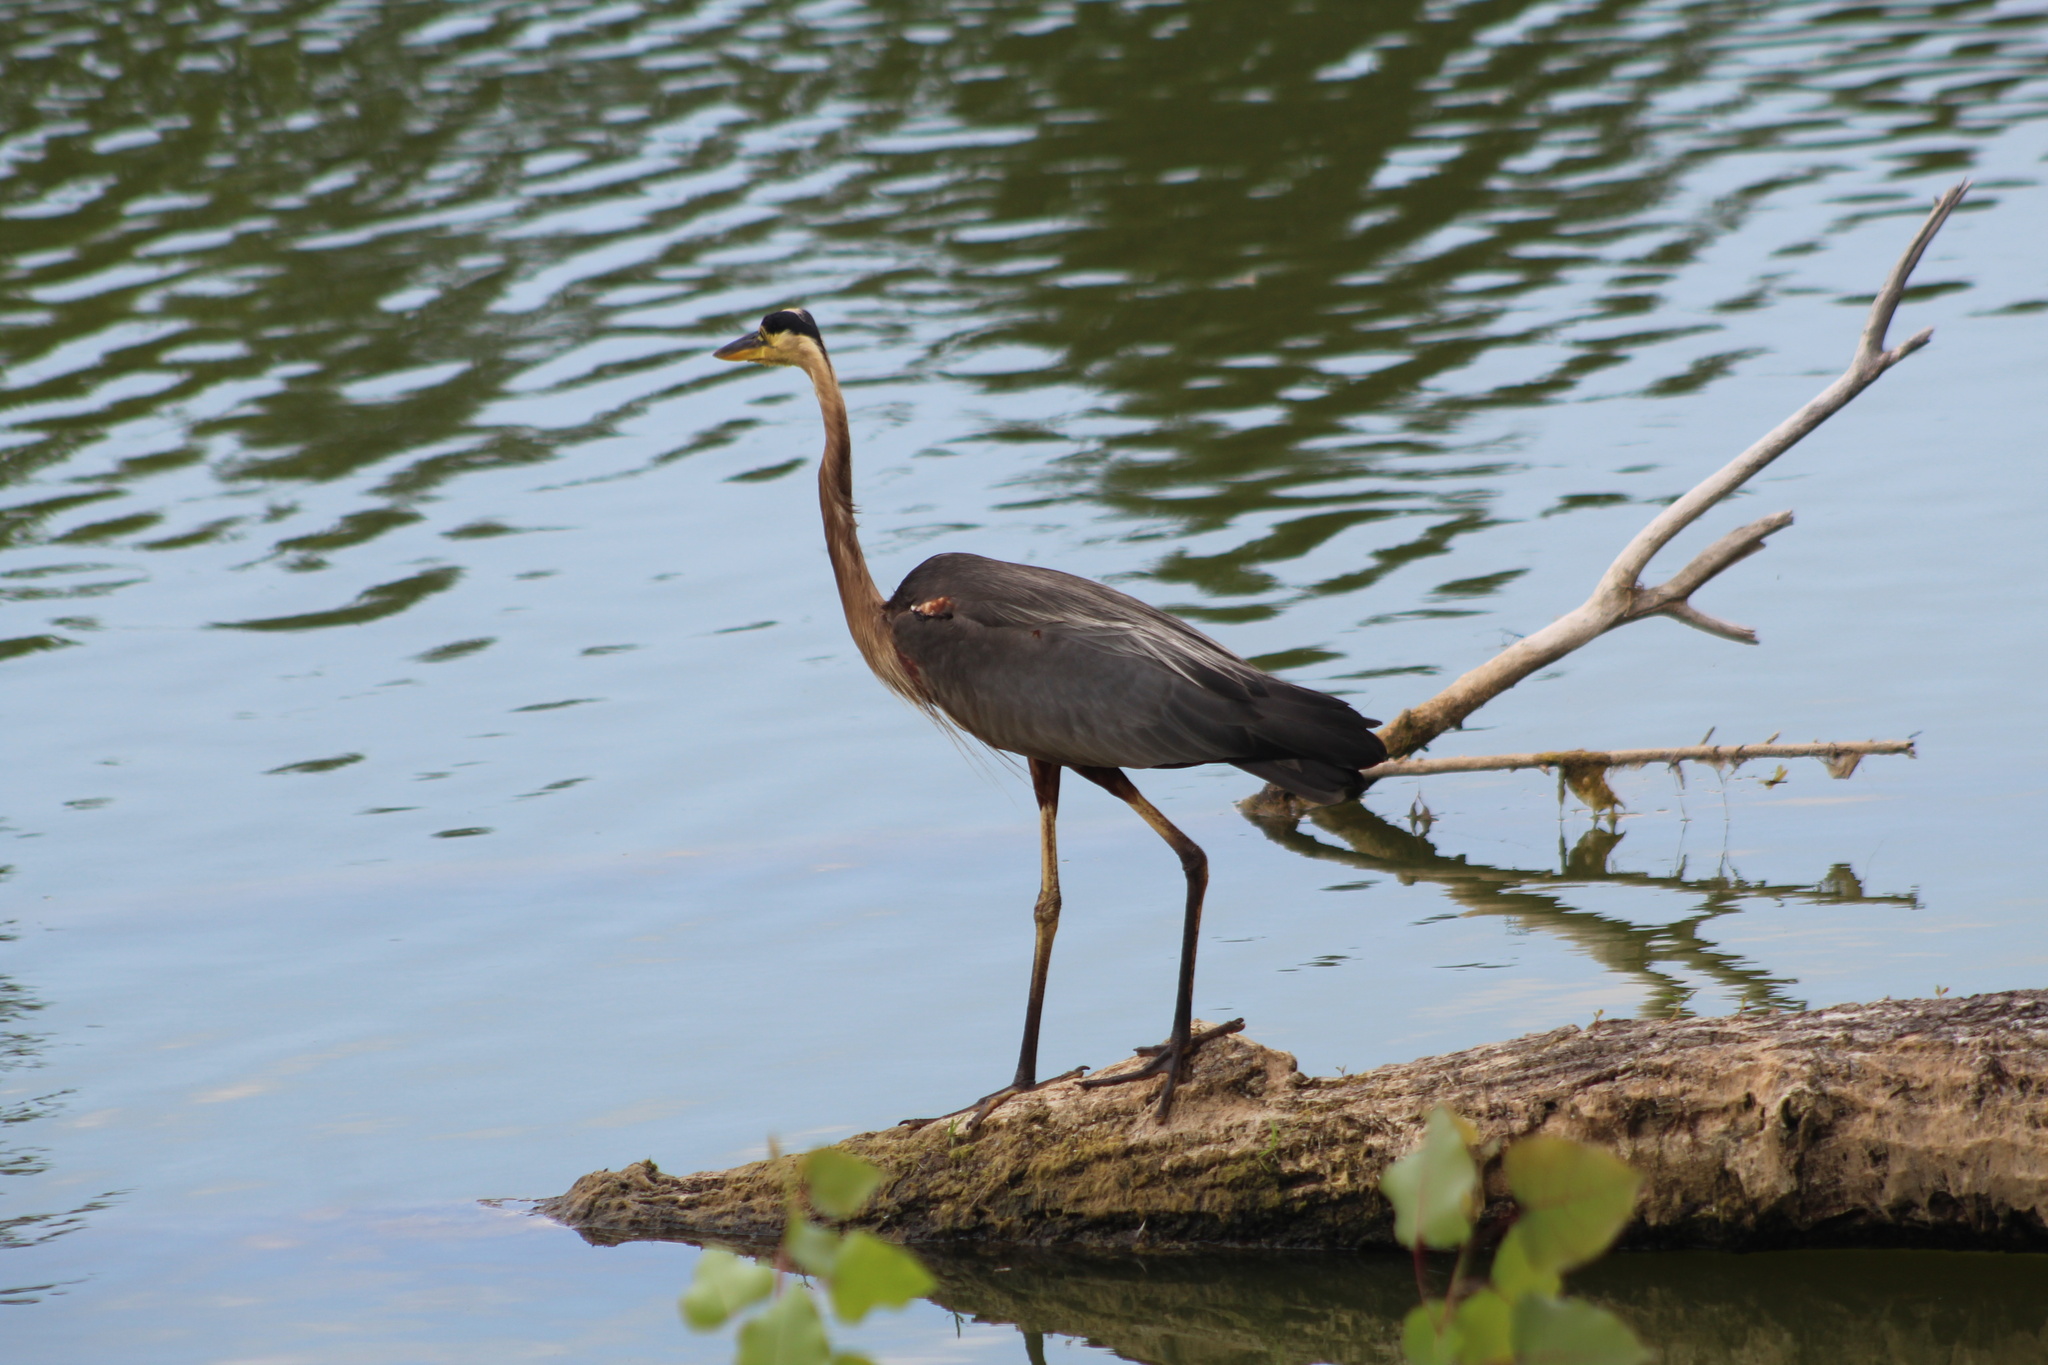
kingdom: Animalia
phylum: Chordata
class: Aves
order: Pelecaniformes
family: Ardeidae
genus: Ardea
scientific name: Ardea herodias
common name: Great blue heron
